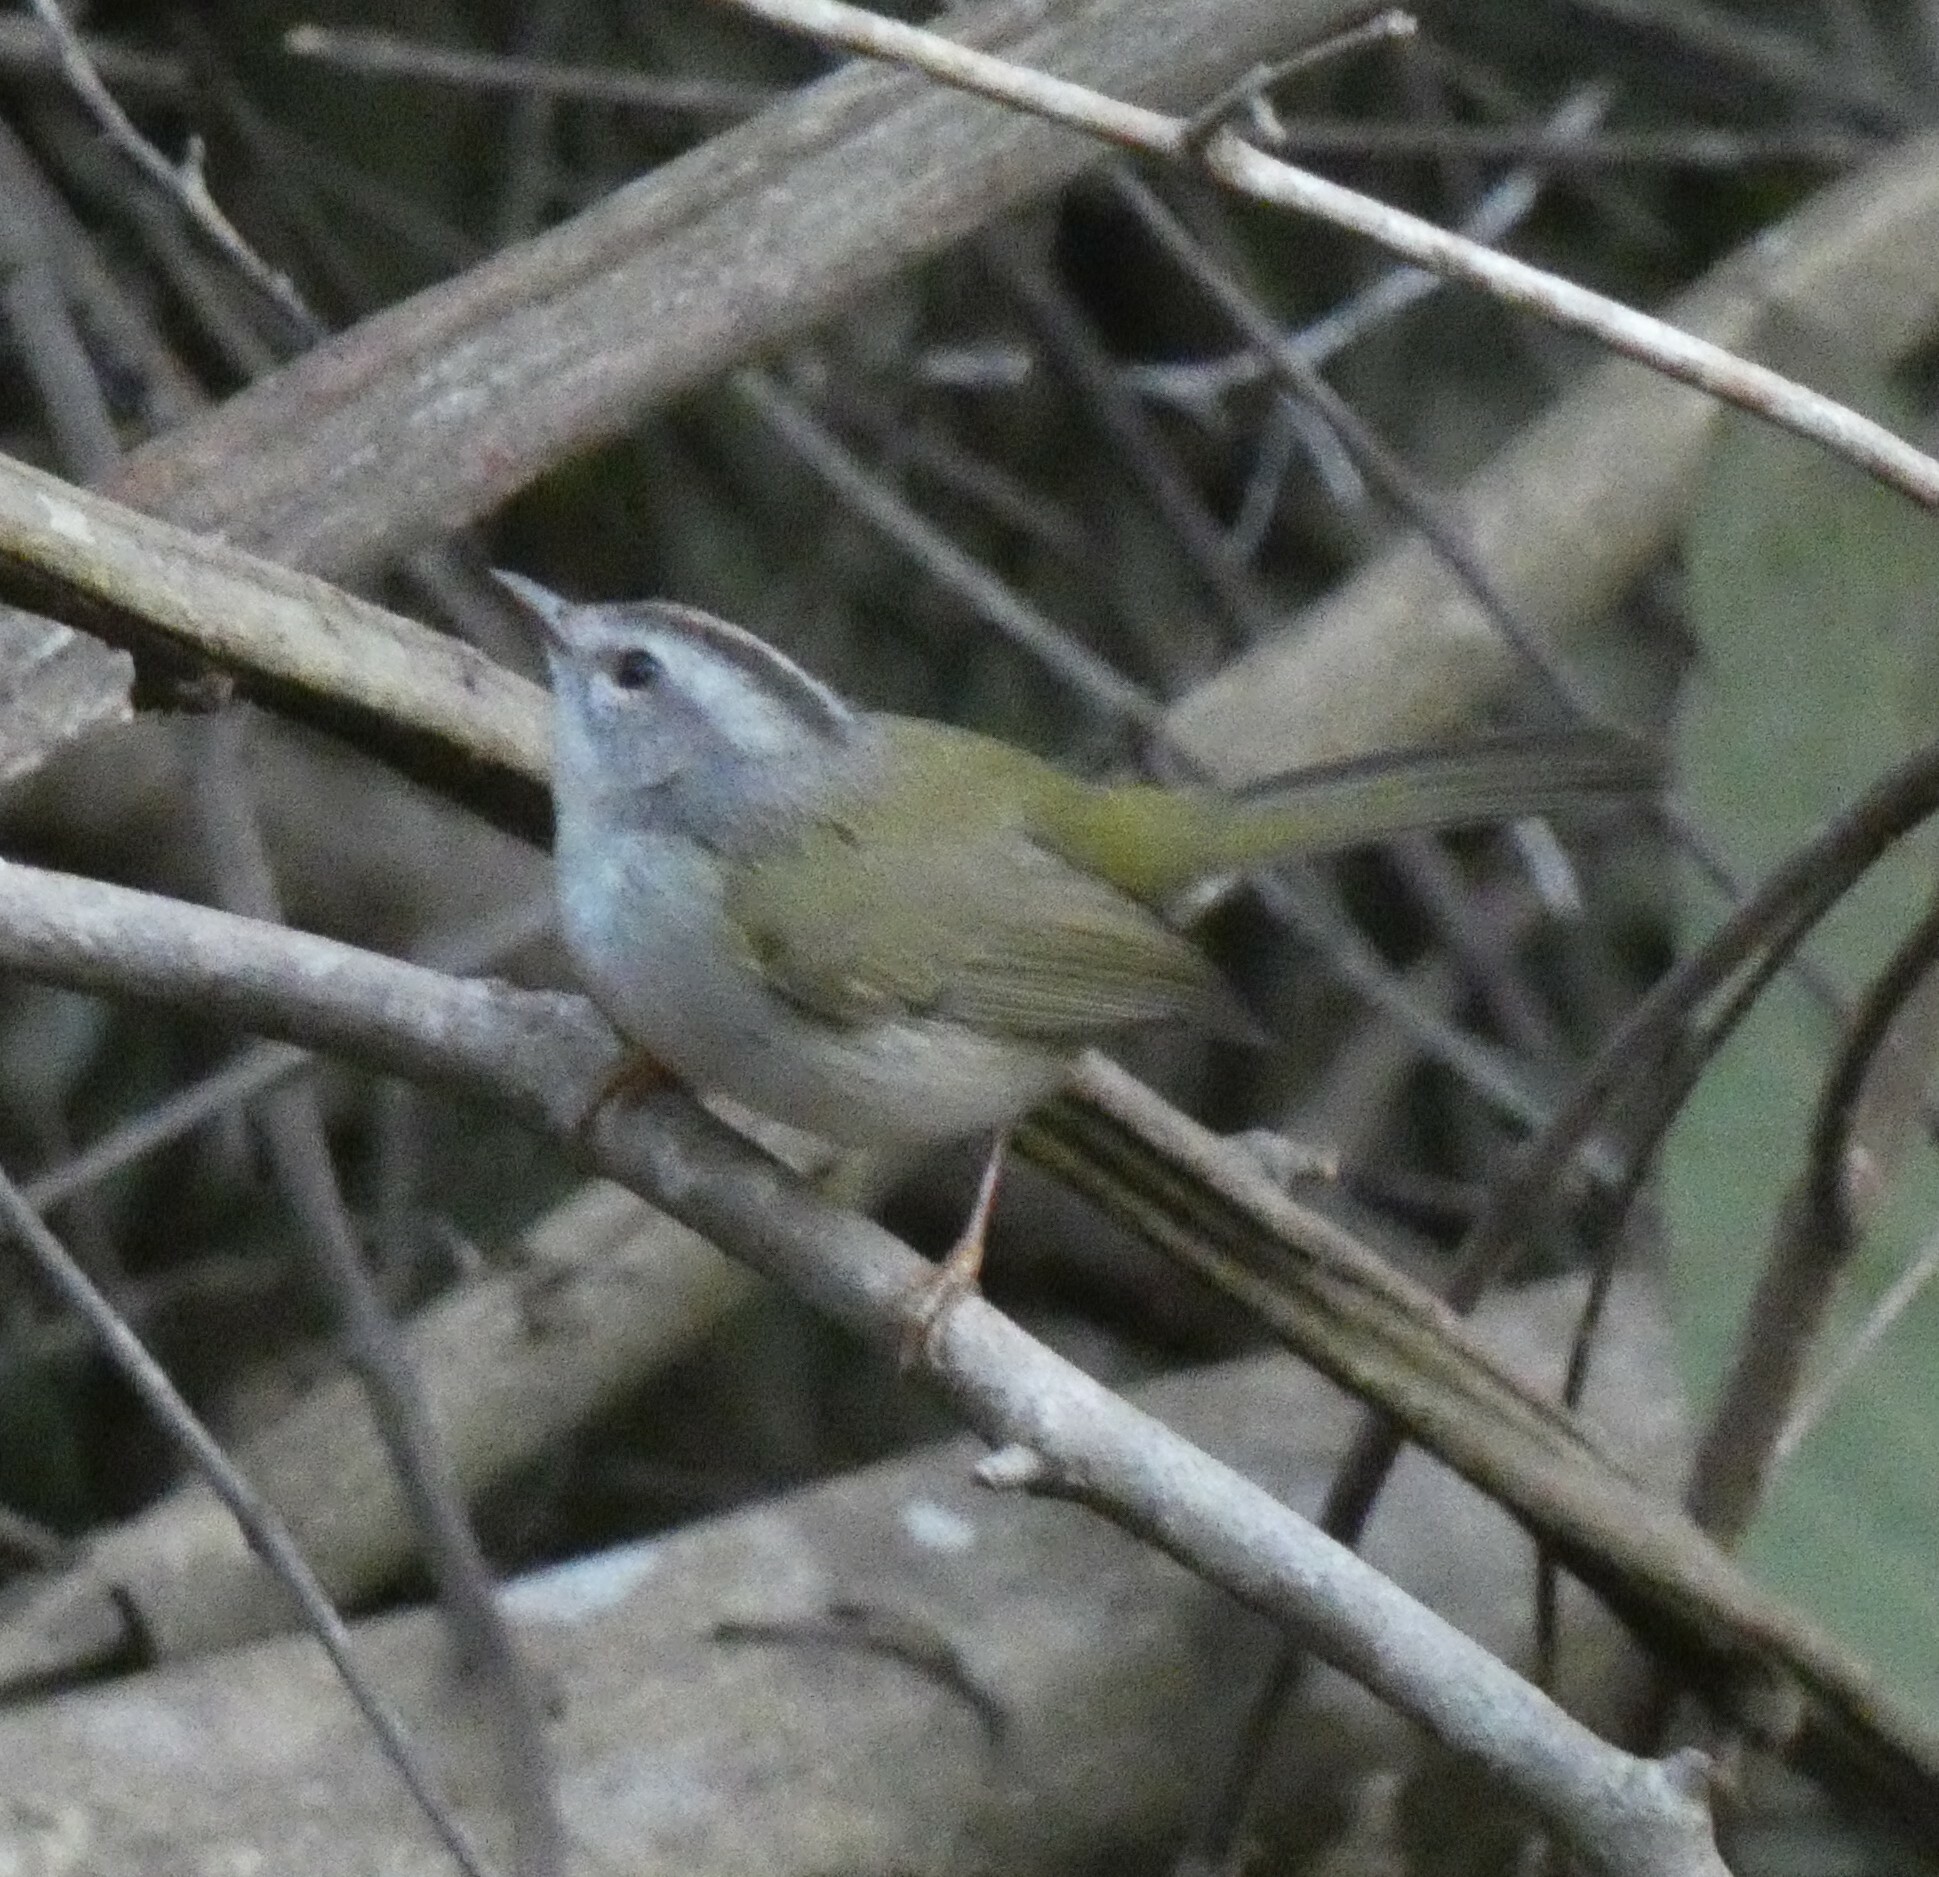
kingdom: Animalia
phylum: Chordata
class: Aves
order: Passeriformes
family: Parulidae
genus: Basileuterus
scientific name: Basileuterus culicivorus
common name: Golden-crowned warbler
